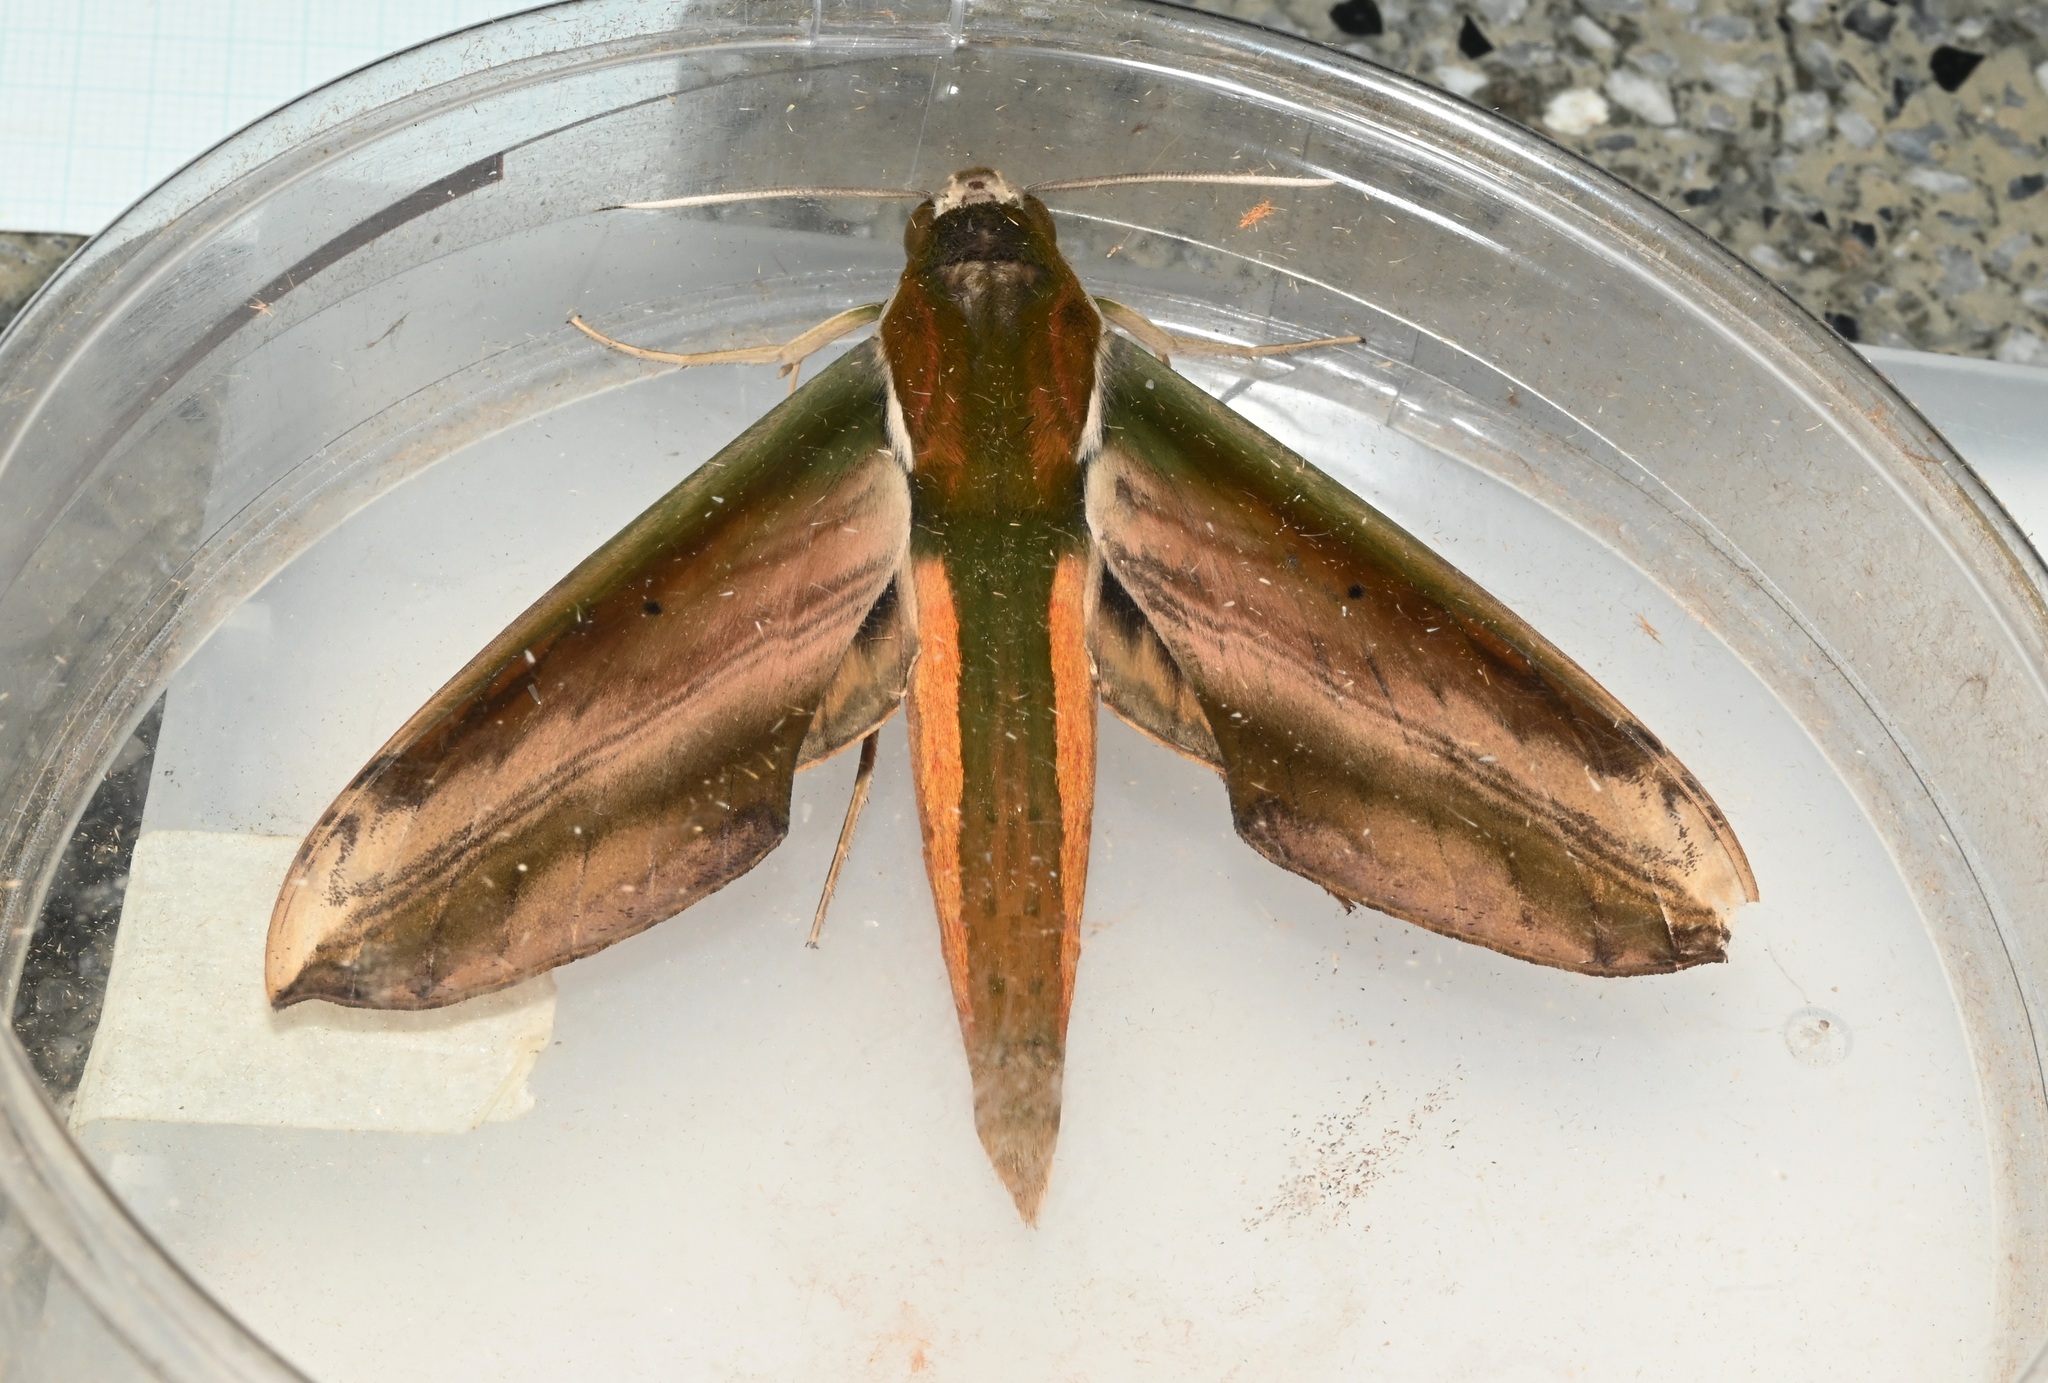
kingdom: Animalia
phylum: Arthropoda
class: Insecta
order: Lepidoptera
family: Sphingidae
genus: Theretra
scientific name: Theretra nessus
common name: Yam hawk moth
